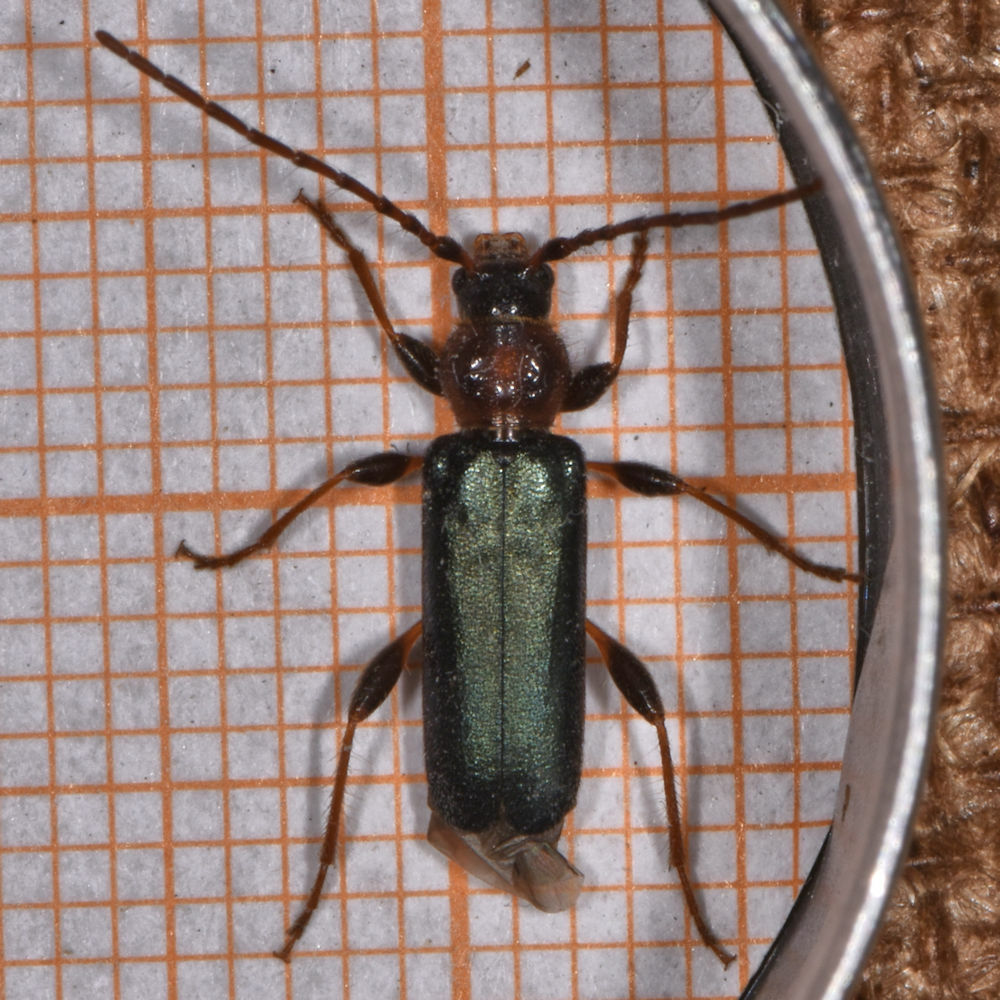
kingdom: Animalia
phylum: Arthropoda
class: Insecta
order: Coleoptera
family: Cerambycidae
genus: Phymatodes
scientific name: Phymatodes testaceus
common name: Long-horned beetle
